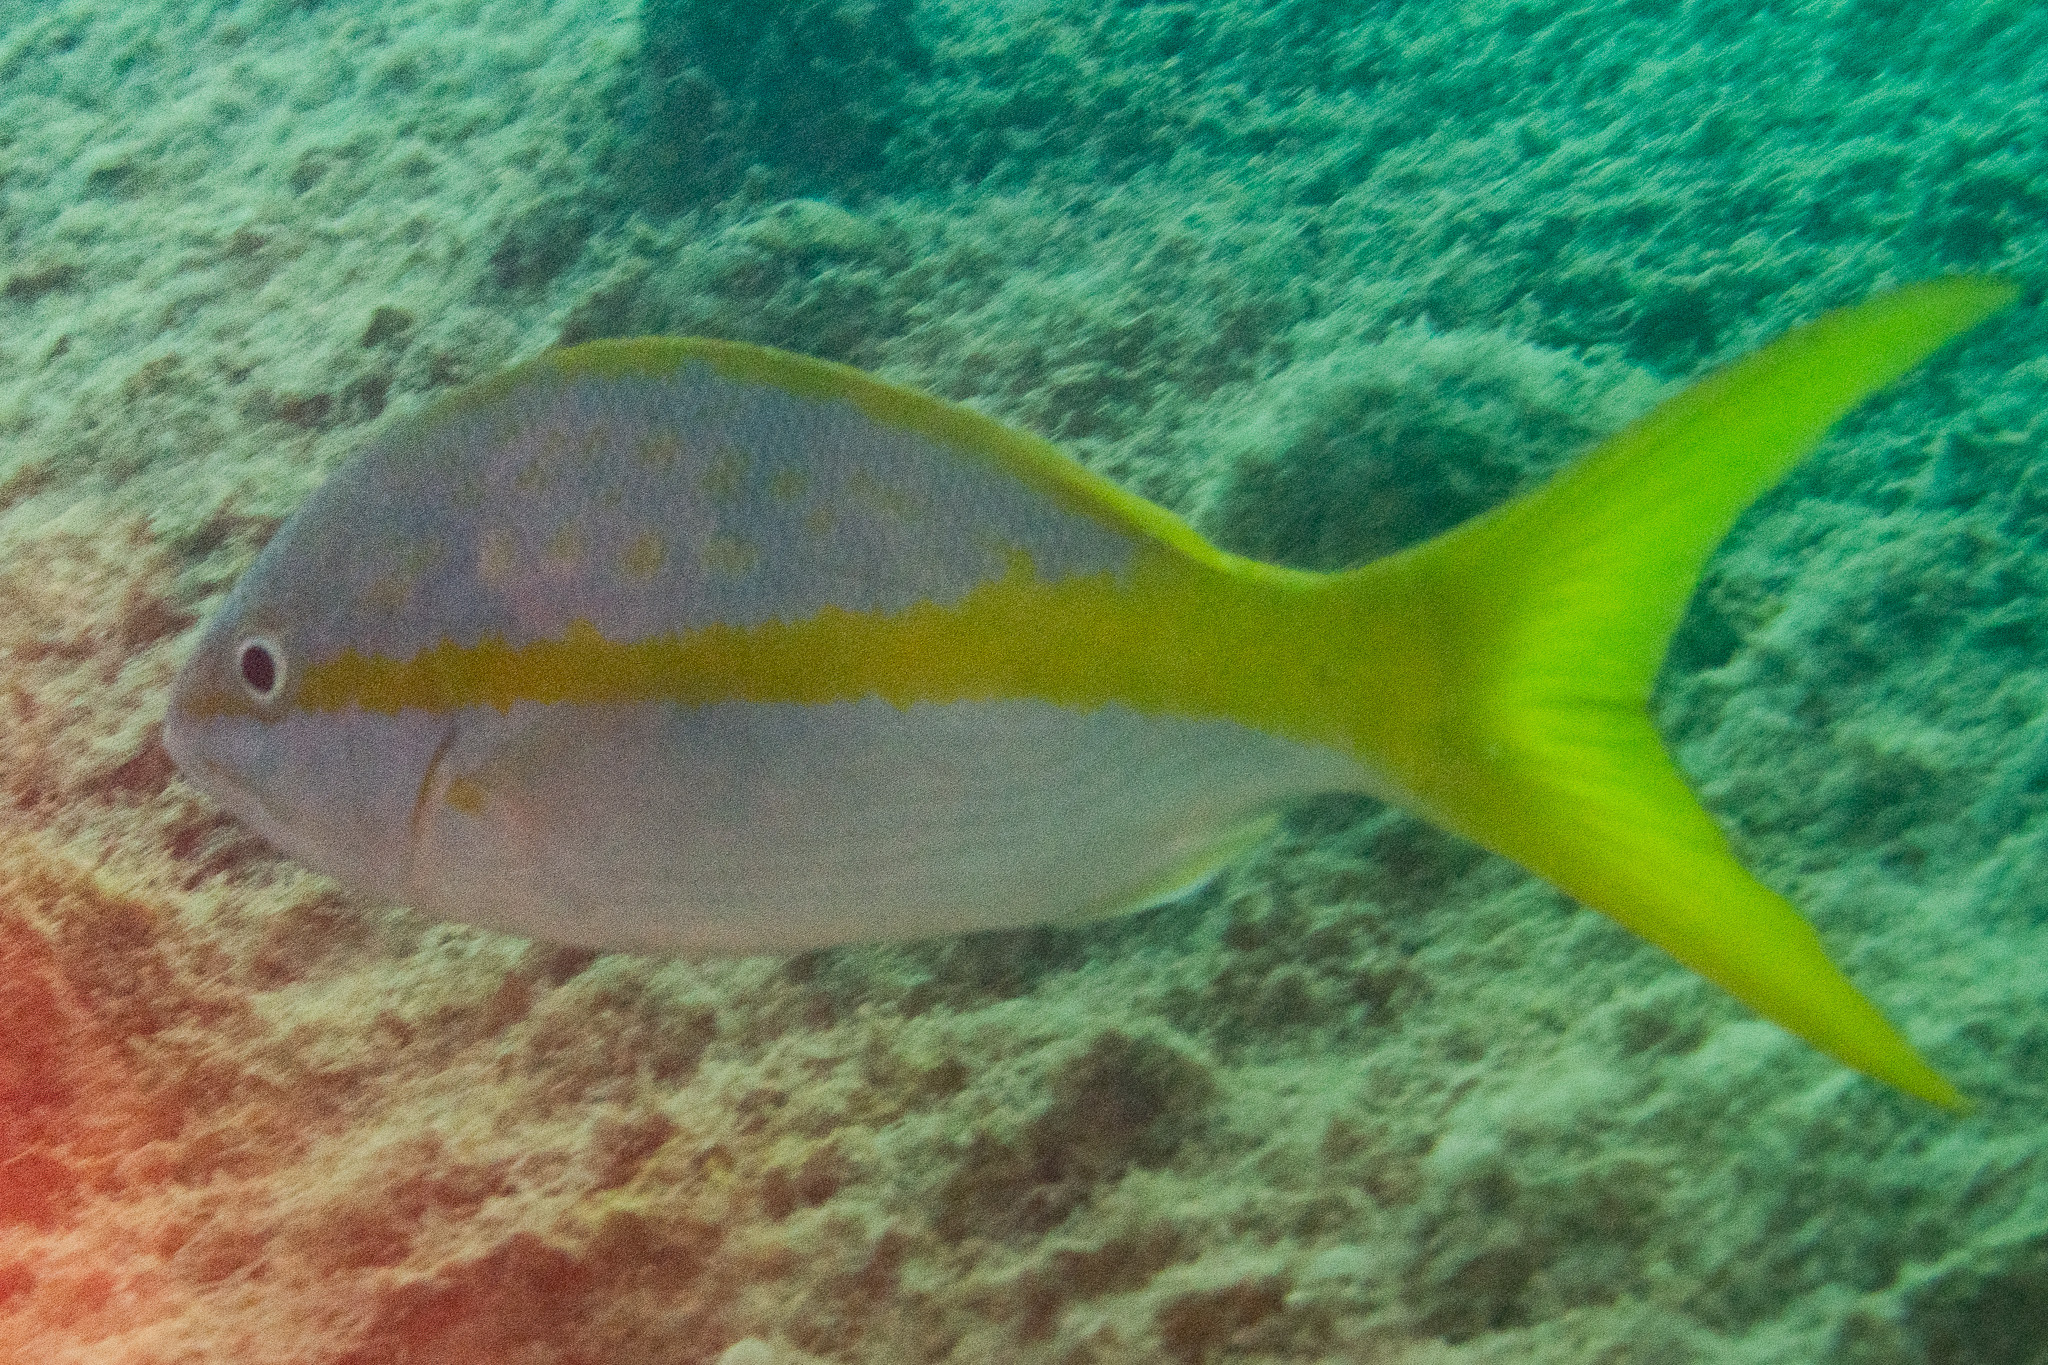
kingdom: Animalia
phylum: Chordata
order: Perciformes
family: Lutjanidae
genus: Ocyurus
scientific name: Ocyurus chrysurus
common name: Yellowtail snapper
